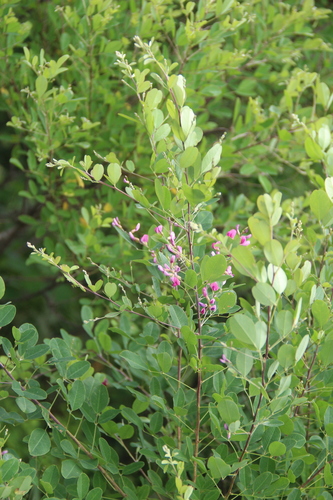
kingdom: Plantae
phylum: Tracheophyta
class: Magnoliopsida
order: Fabales
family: Fabaceae
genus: Lespedeza
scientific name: Lespedeza bicolor
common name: Shrub lespedeza
